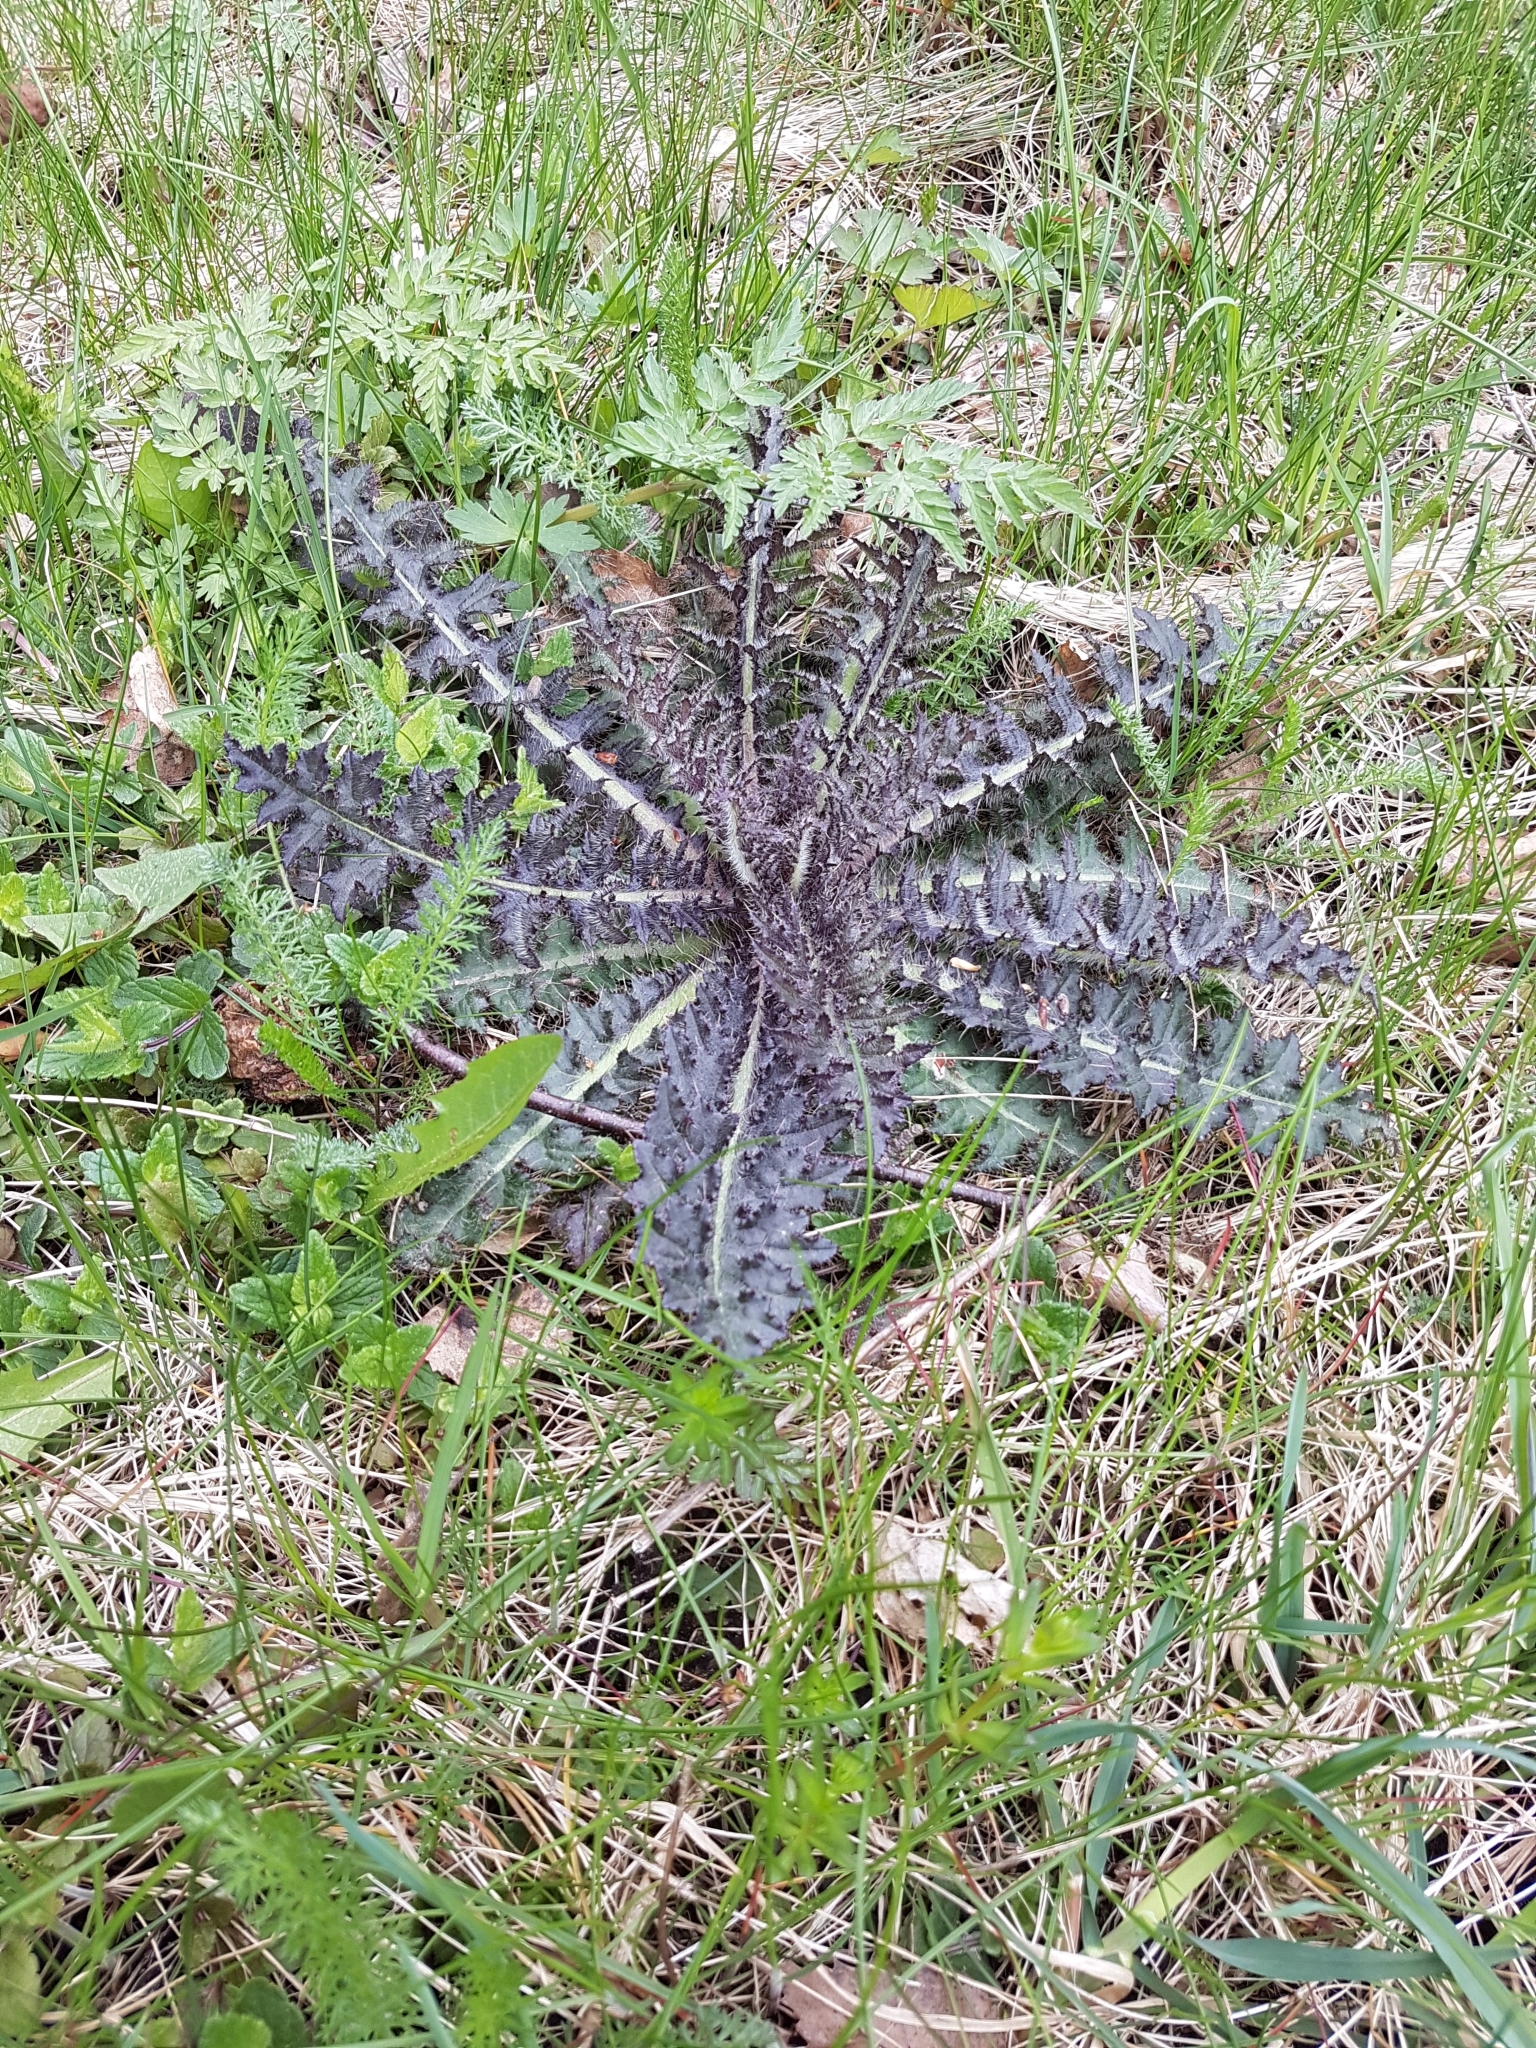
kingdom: Plantae
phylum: Tracheophyta
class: Magnoliopsida
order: Asterales
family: Asteraceae
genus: Cirsium
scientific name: Cirsium palustre
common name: Marsh thistle
